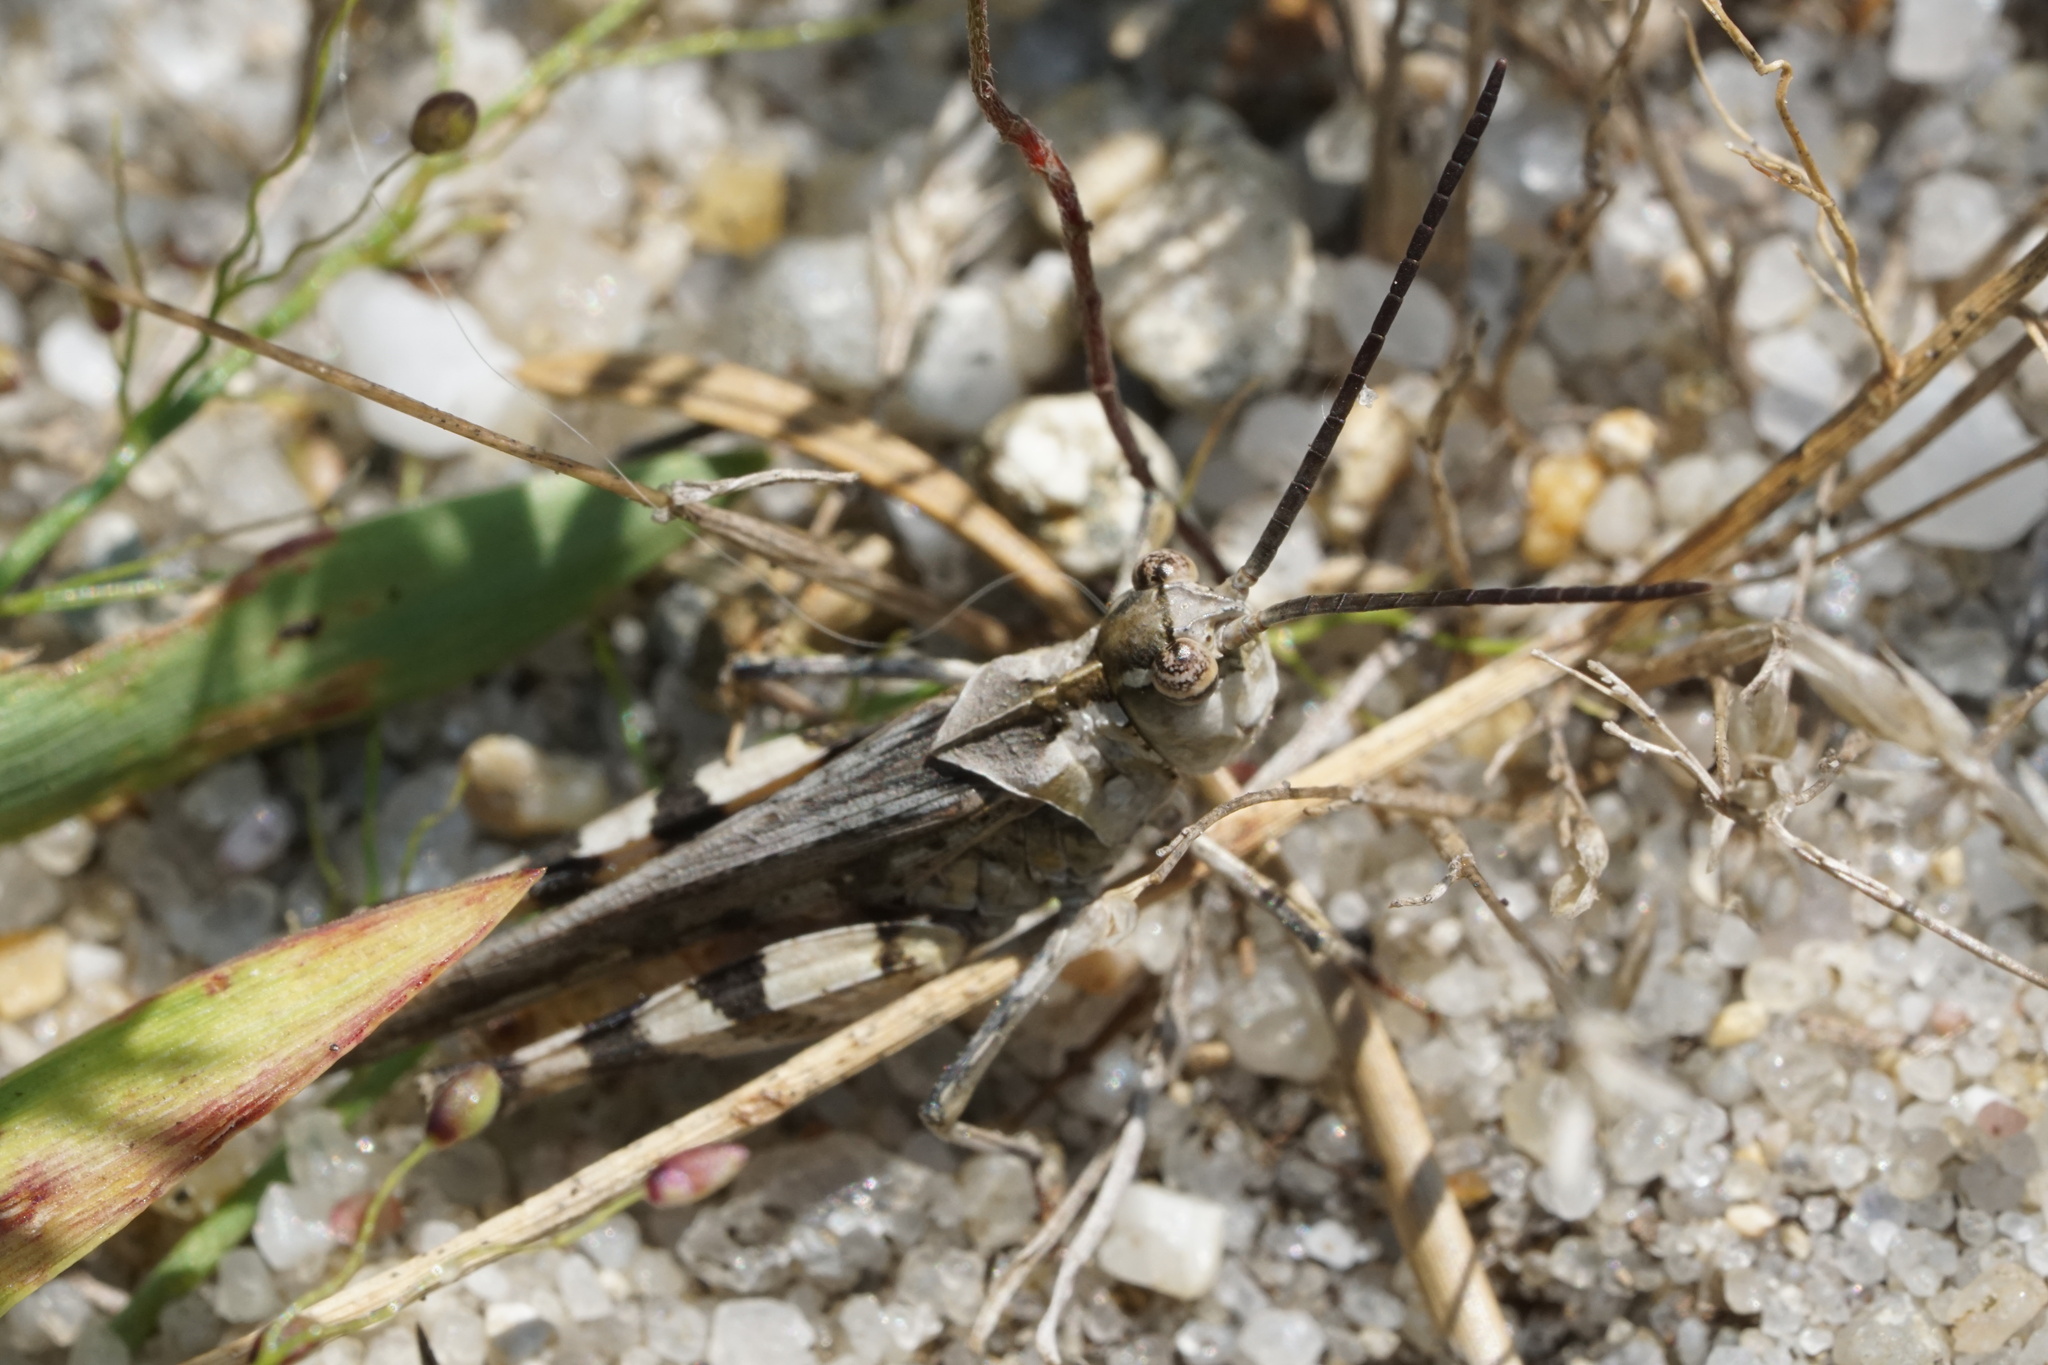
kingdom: Animalia
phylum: Arthropoda
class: Insecta
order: Orthoptera
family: Acrididae
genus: Psinidia
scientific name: Psinidia fenestralis
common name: Long-horned locust
